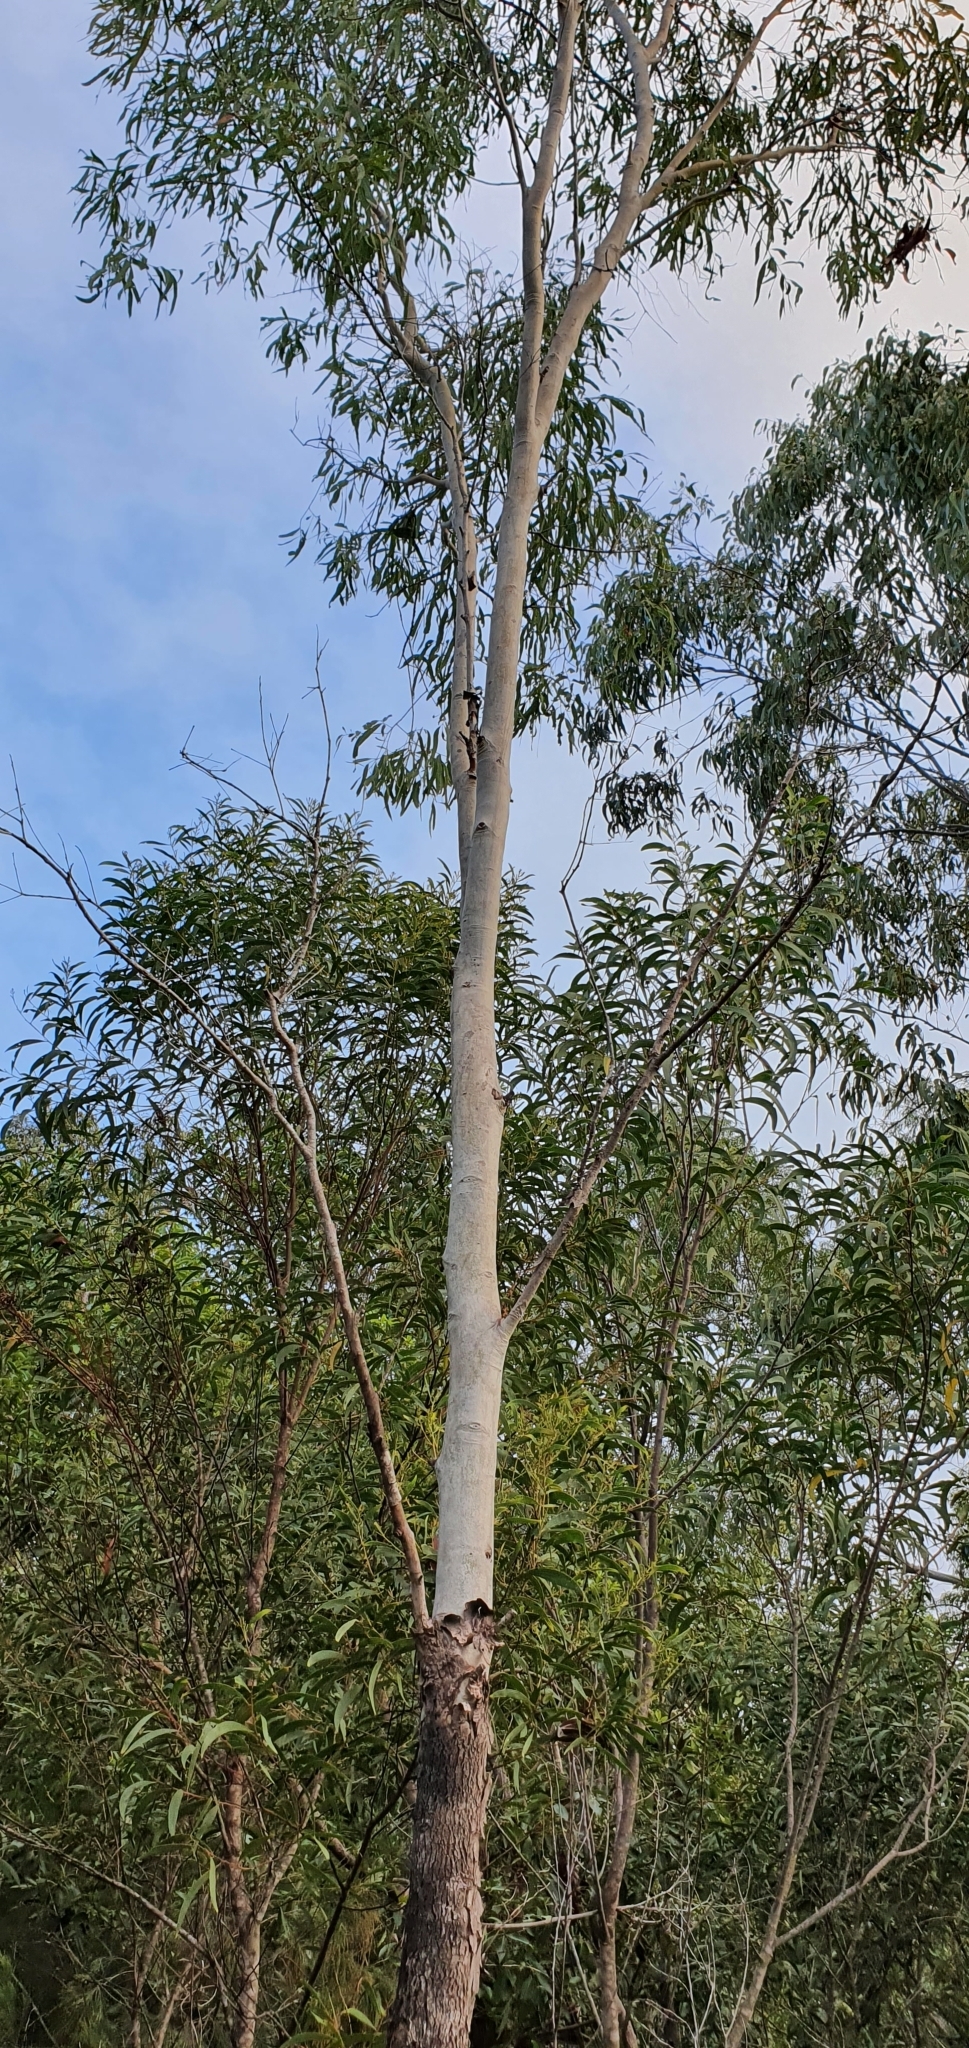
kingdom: Plantae
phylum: Tracheophyta
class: Magnoliopsida
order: Myrtales
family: Myrtaceae
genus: Corymbia
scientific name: Corymbia tessellaris
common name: Carbeen
